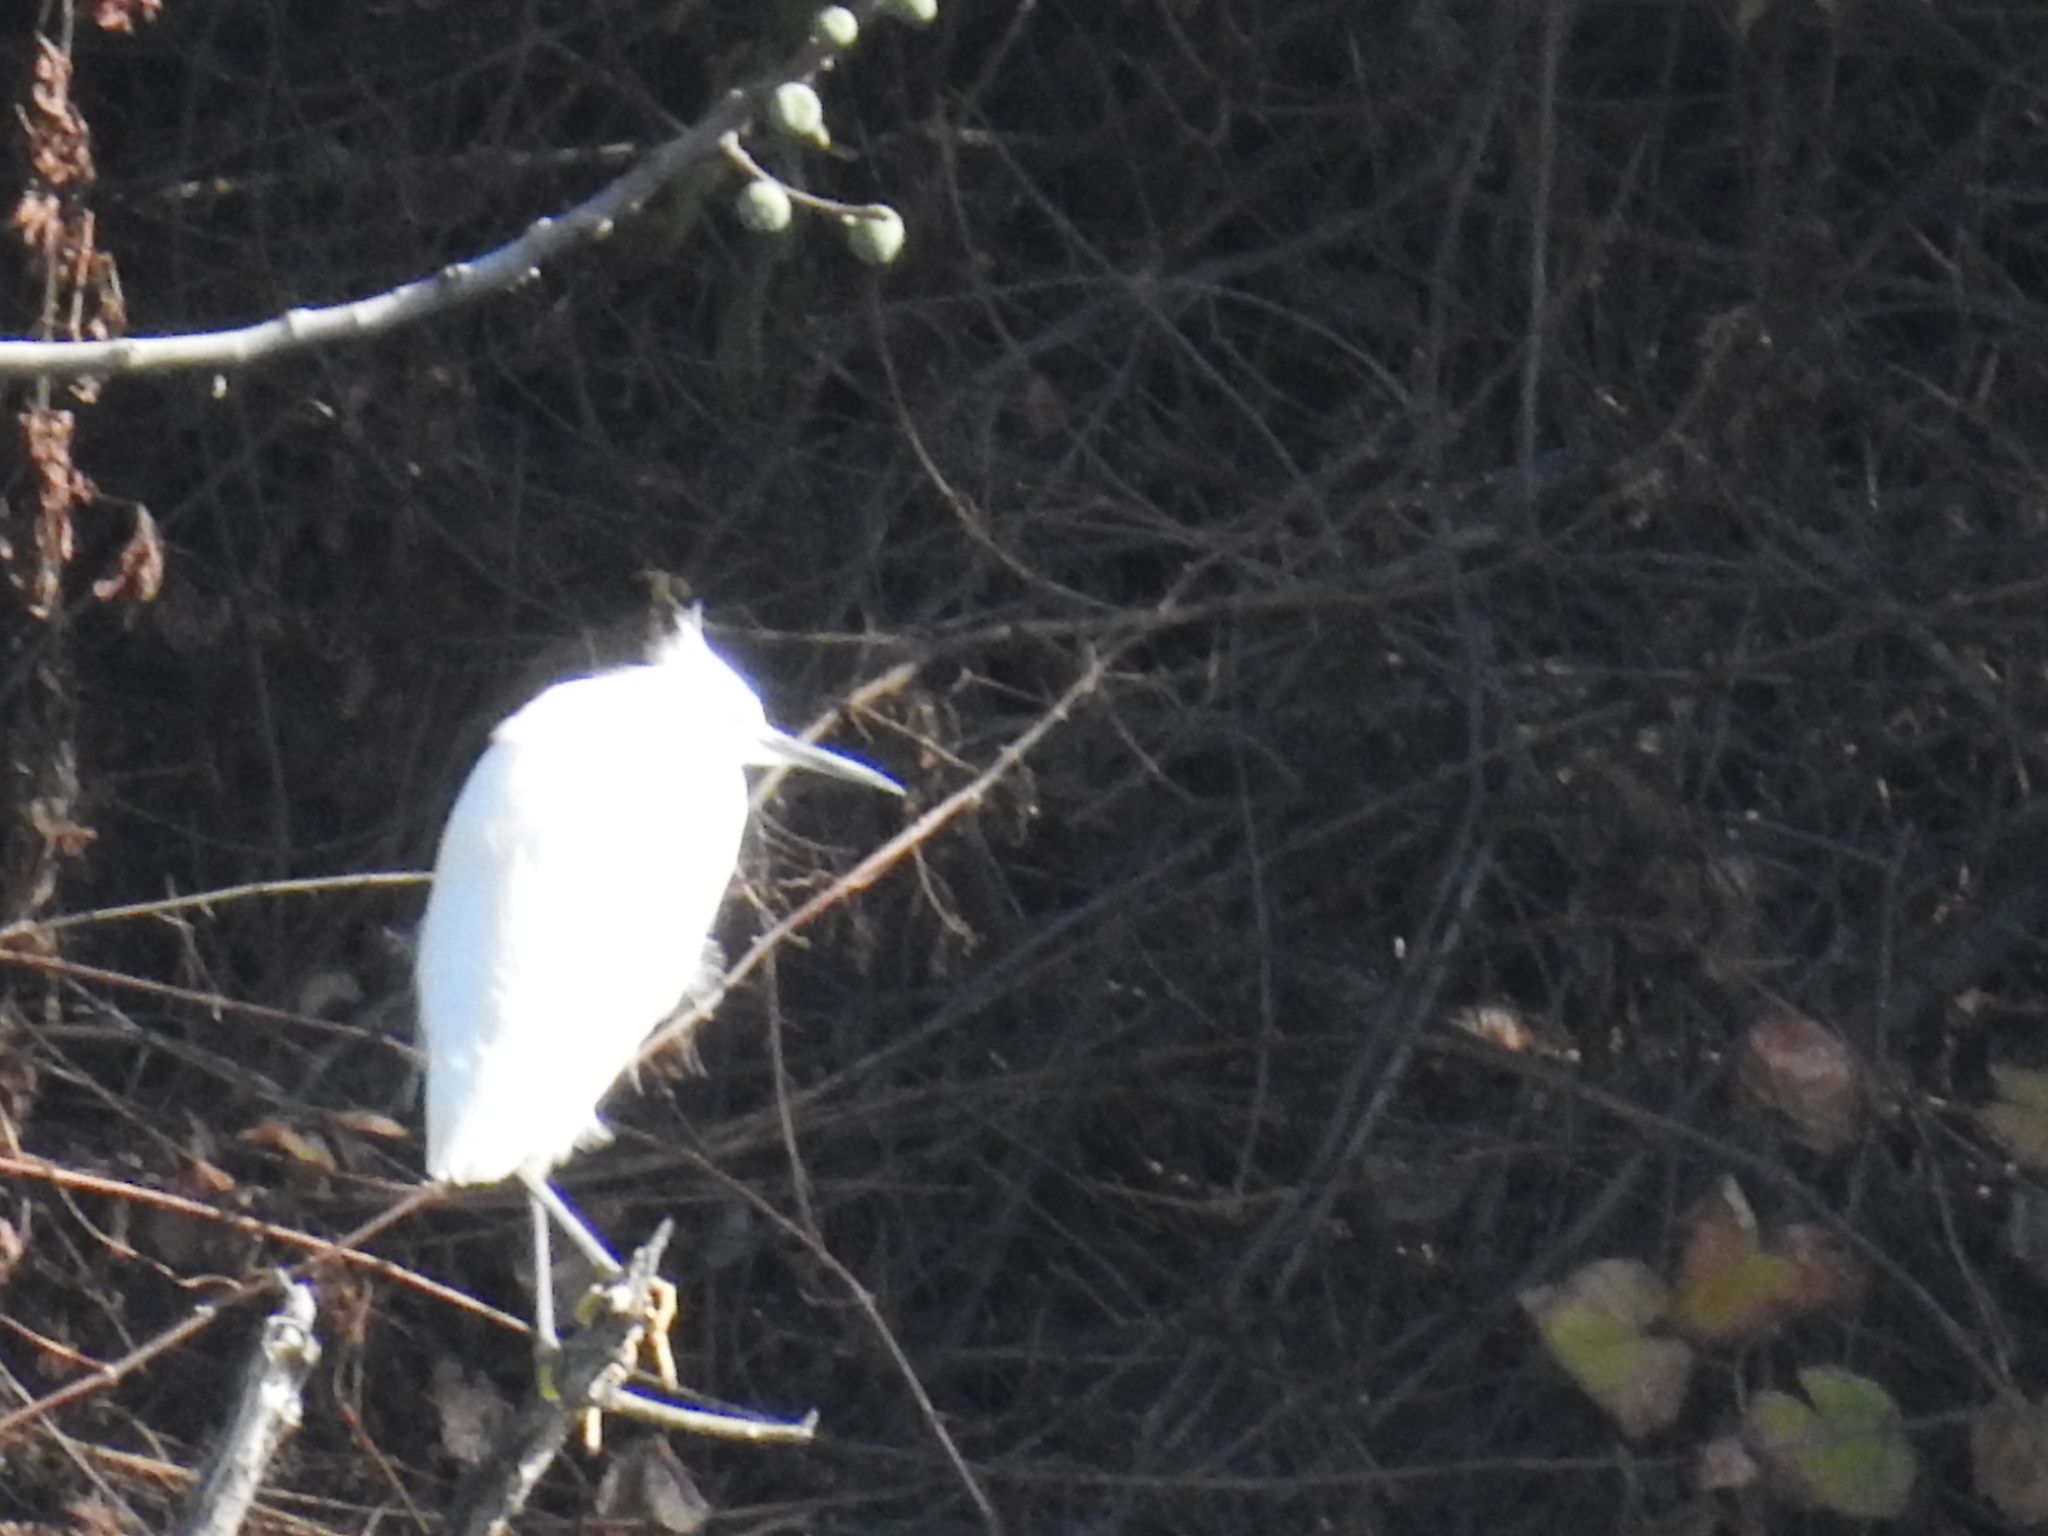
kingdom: Animalia
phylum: Chordata
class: Aves
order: Pelecaniformes
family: Ardeidae
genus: Egretta
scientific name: Egretta thula
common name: Snowy egret
